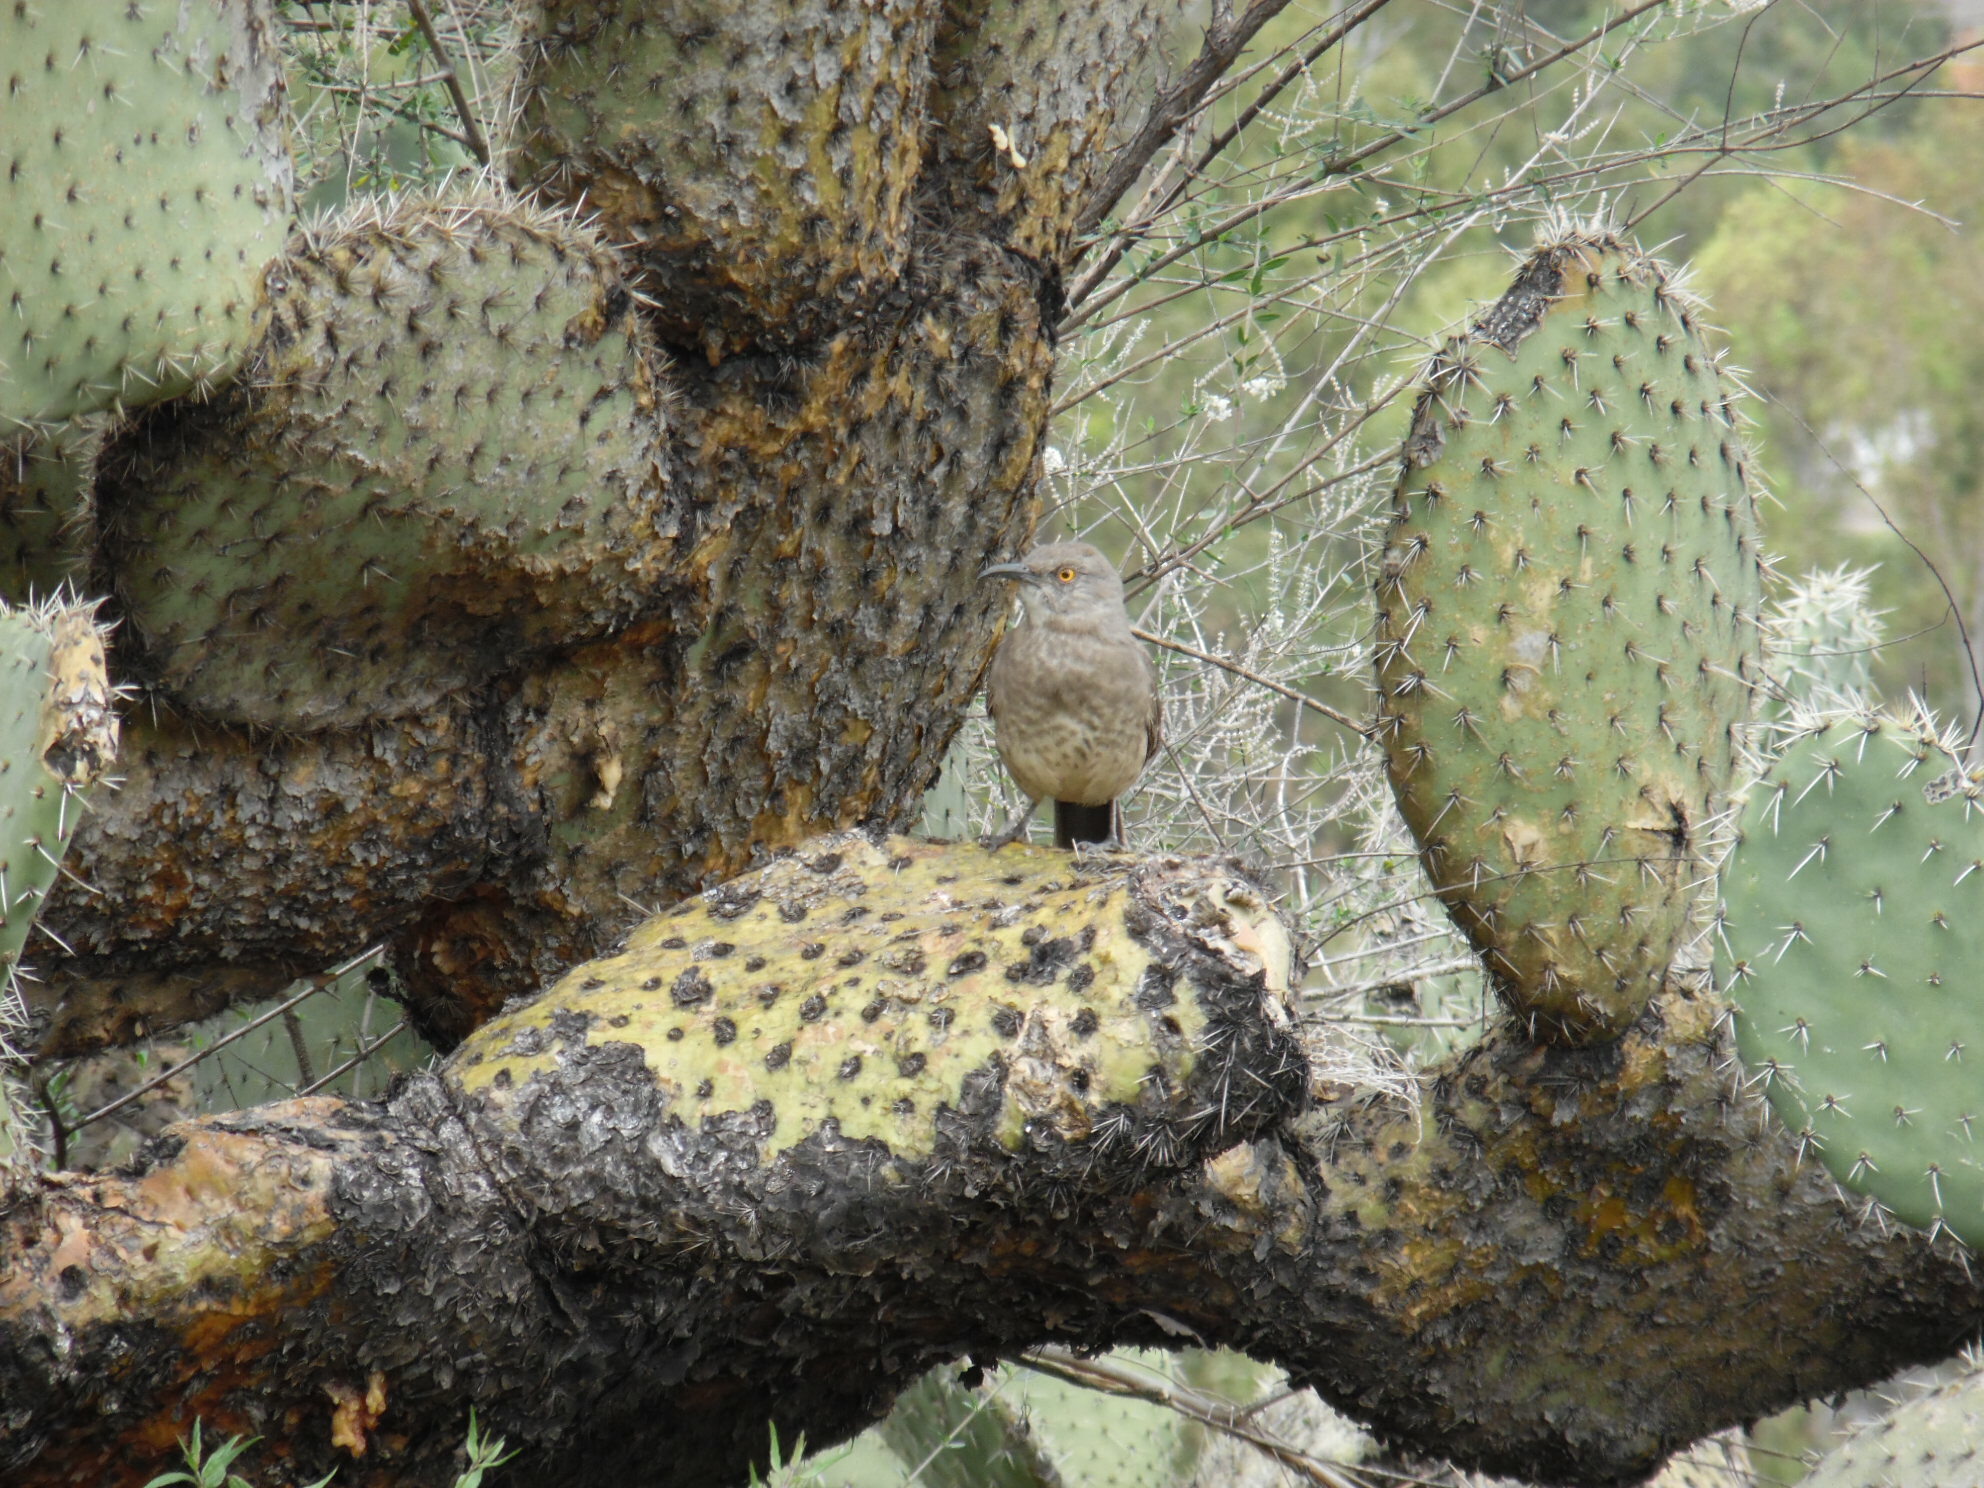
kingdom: Animalia
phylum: Chordata
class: Aves
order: Passeriformes
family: Mimidae
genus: Toxostoma
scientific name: Toxostoma curvirostre
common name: Curve-billed thrasher
